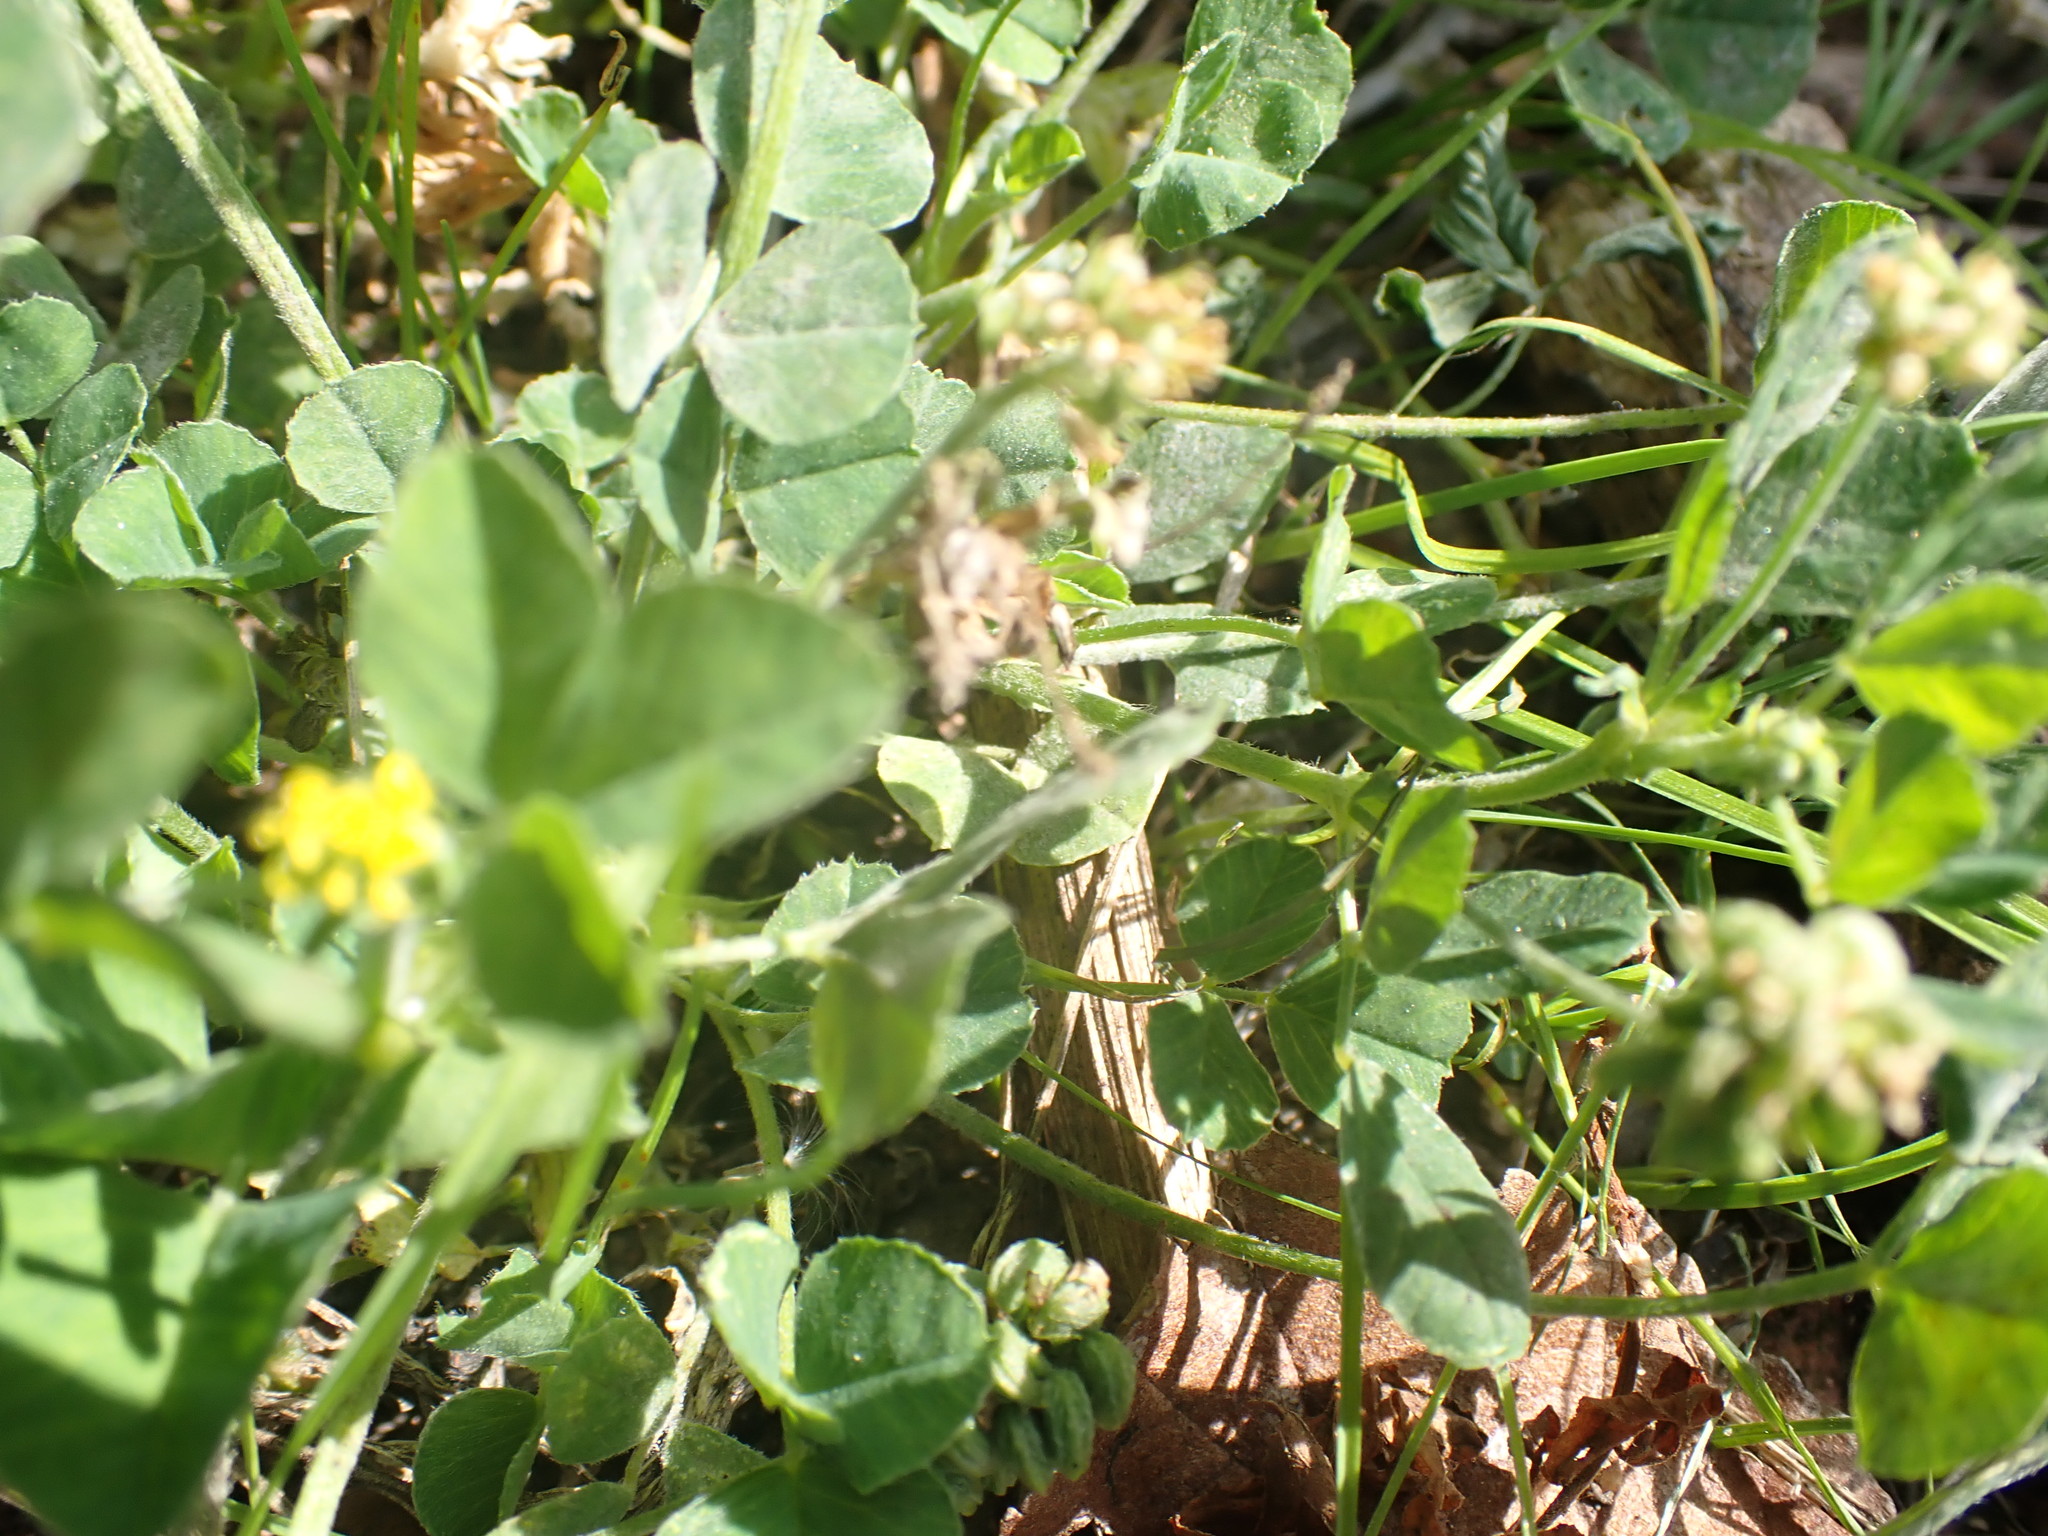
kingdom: Plantae
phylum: Tracheophyta
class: Magnoliopsida
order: Fabales
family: Fabaceae
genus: Medicago
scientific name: Medicago lupulina
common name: Black medick
